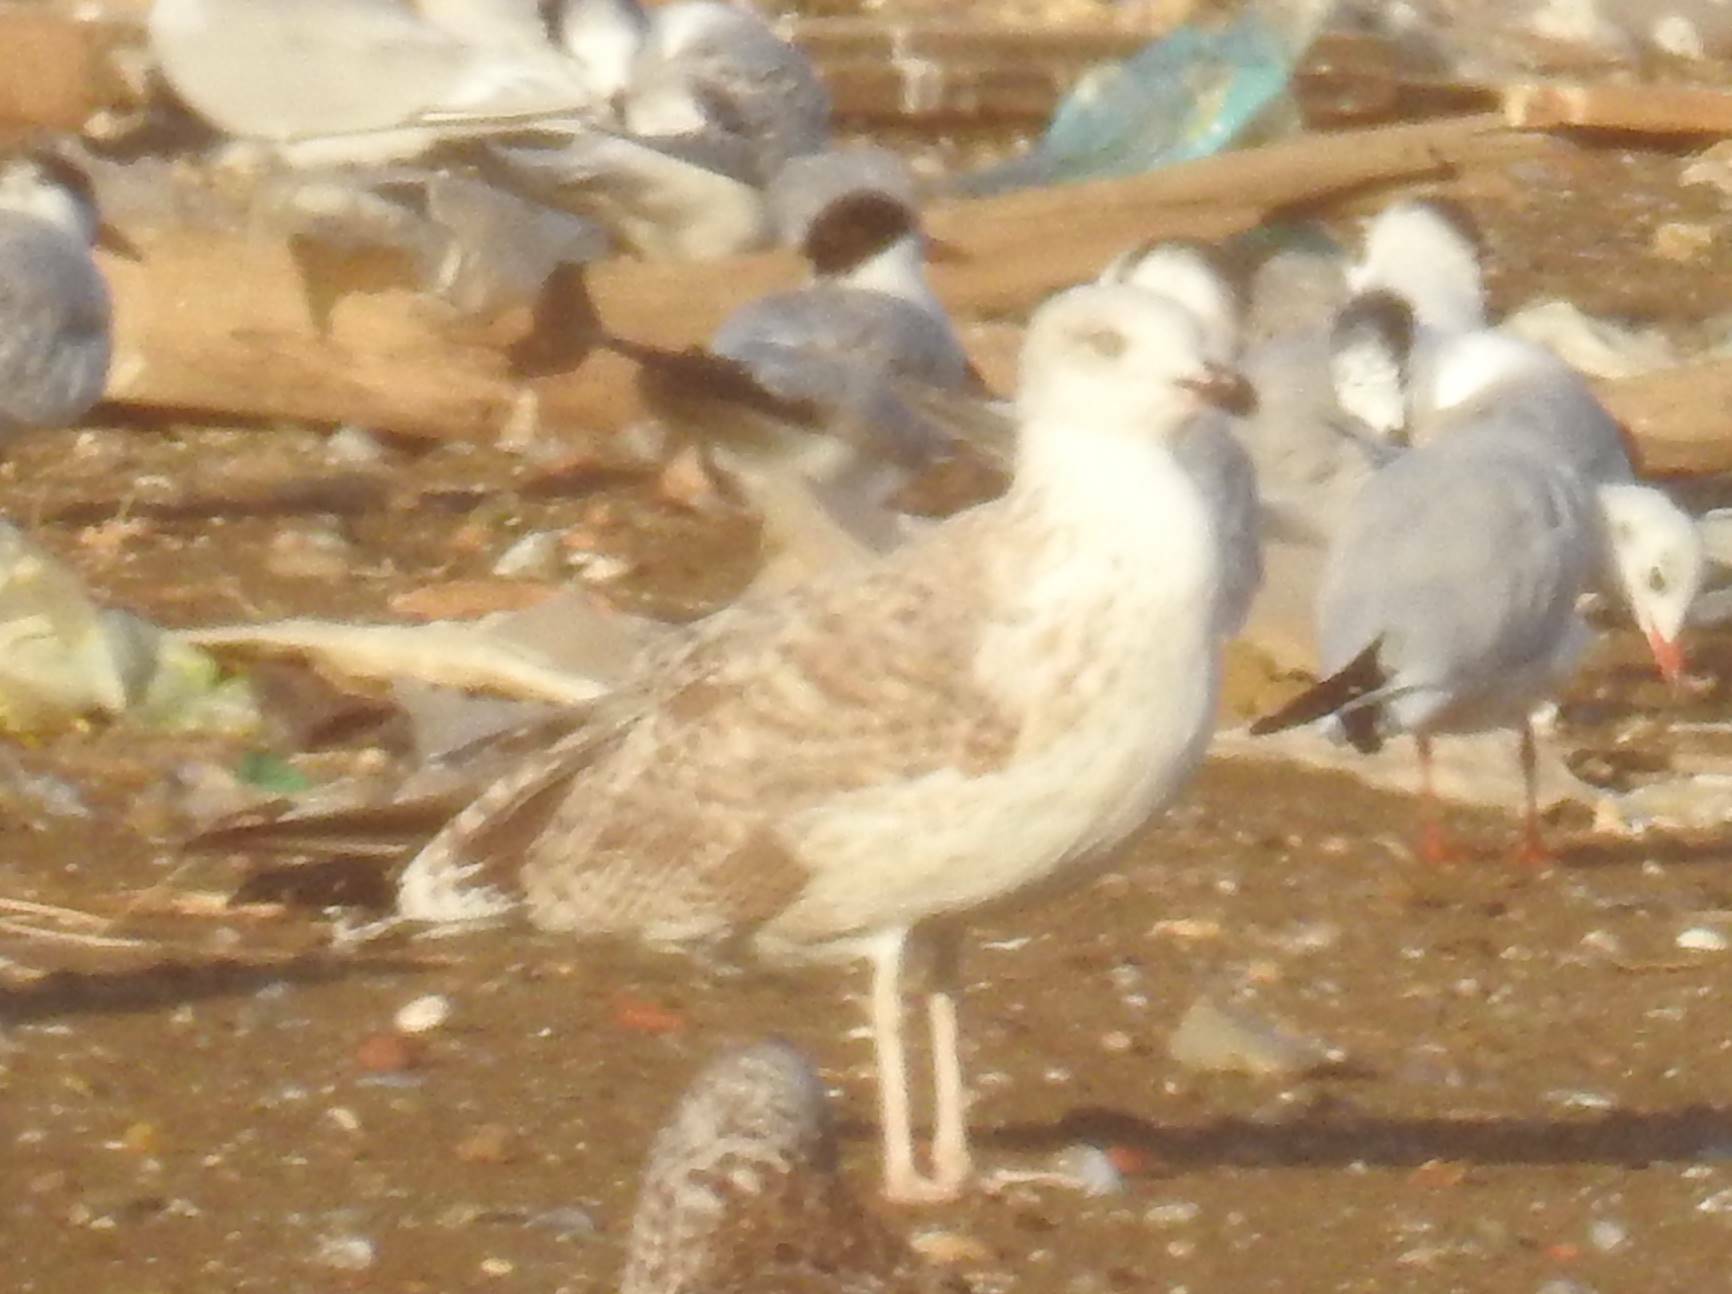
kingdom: Animalia
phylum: Chordata
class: Aves
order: Charadriiformes
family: Laridae
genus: Larus
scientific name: Larus michahellis
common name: Yellow-legged gull
